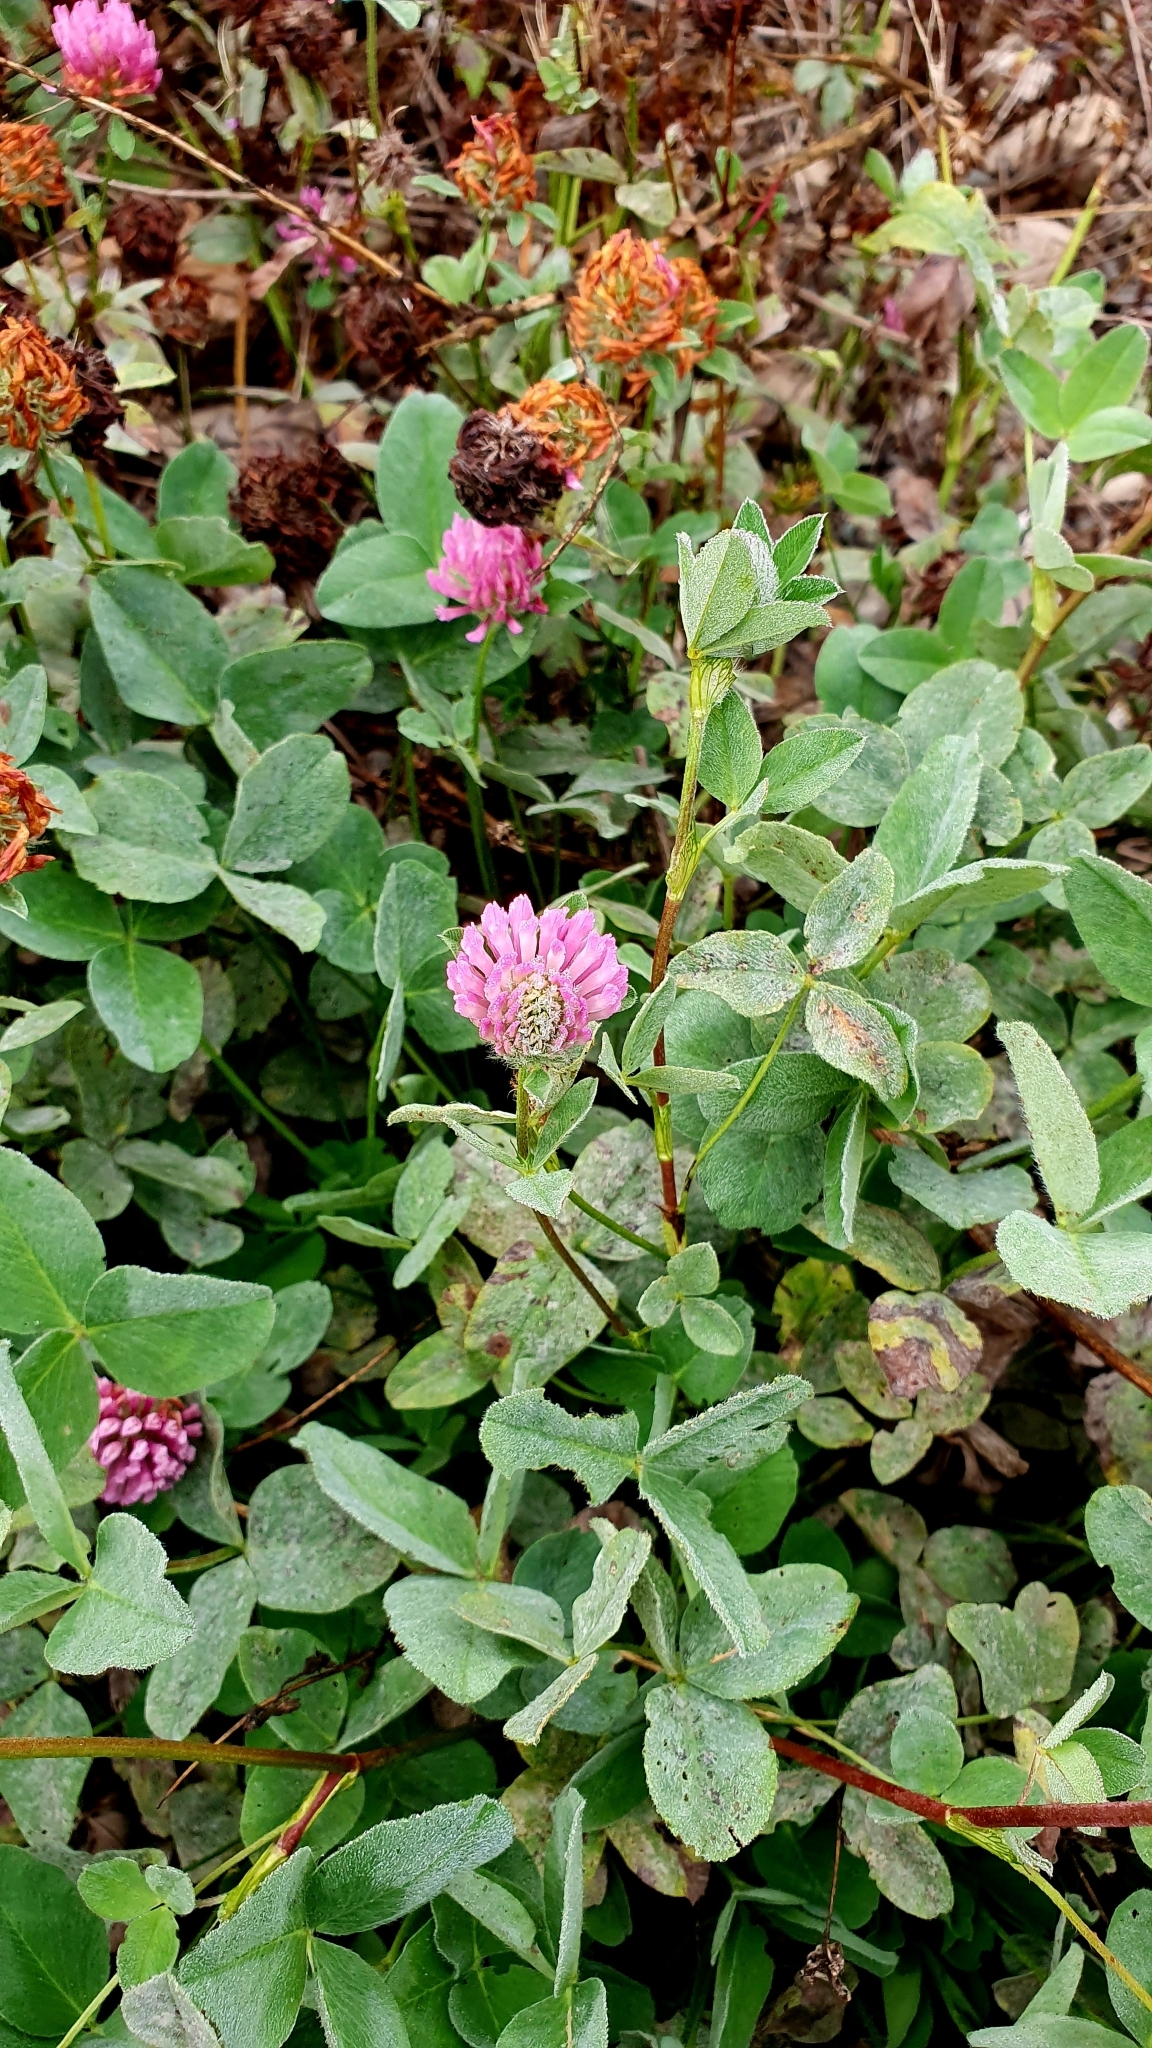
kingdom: Plantae
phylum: Tracheophyta
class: Magnoliopsida
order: Fabales
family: Fabaceae
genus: Trifolium
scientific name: Trifolium pratense
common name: Red clover
